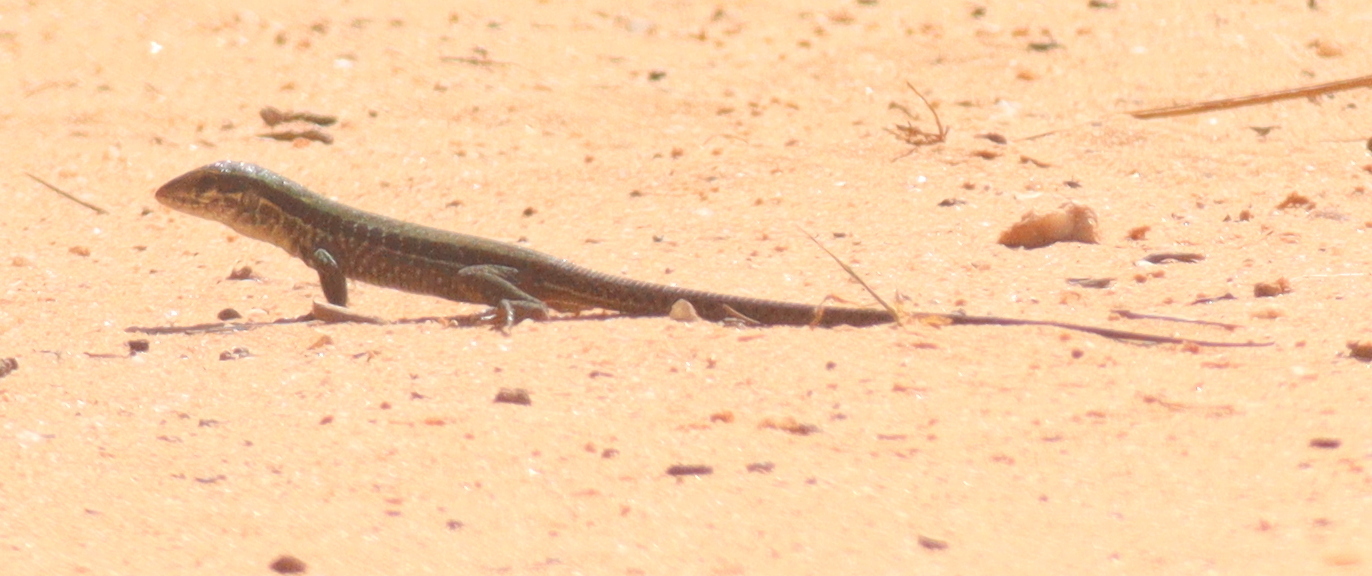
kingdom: Animalia
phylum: Chordata
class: Squamata
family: Teiidae
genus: Ameiva
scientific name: Ameiva ameiva
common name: Giant ameiva
